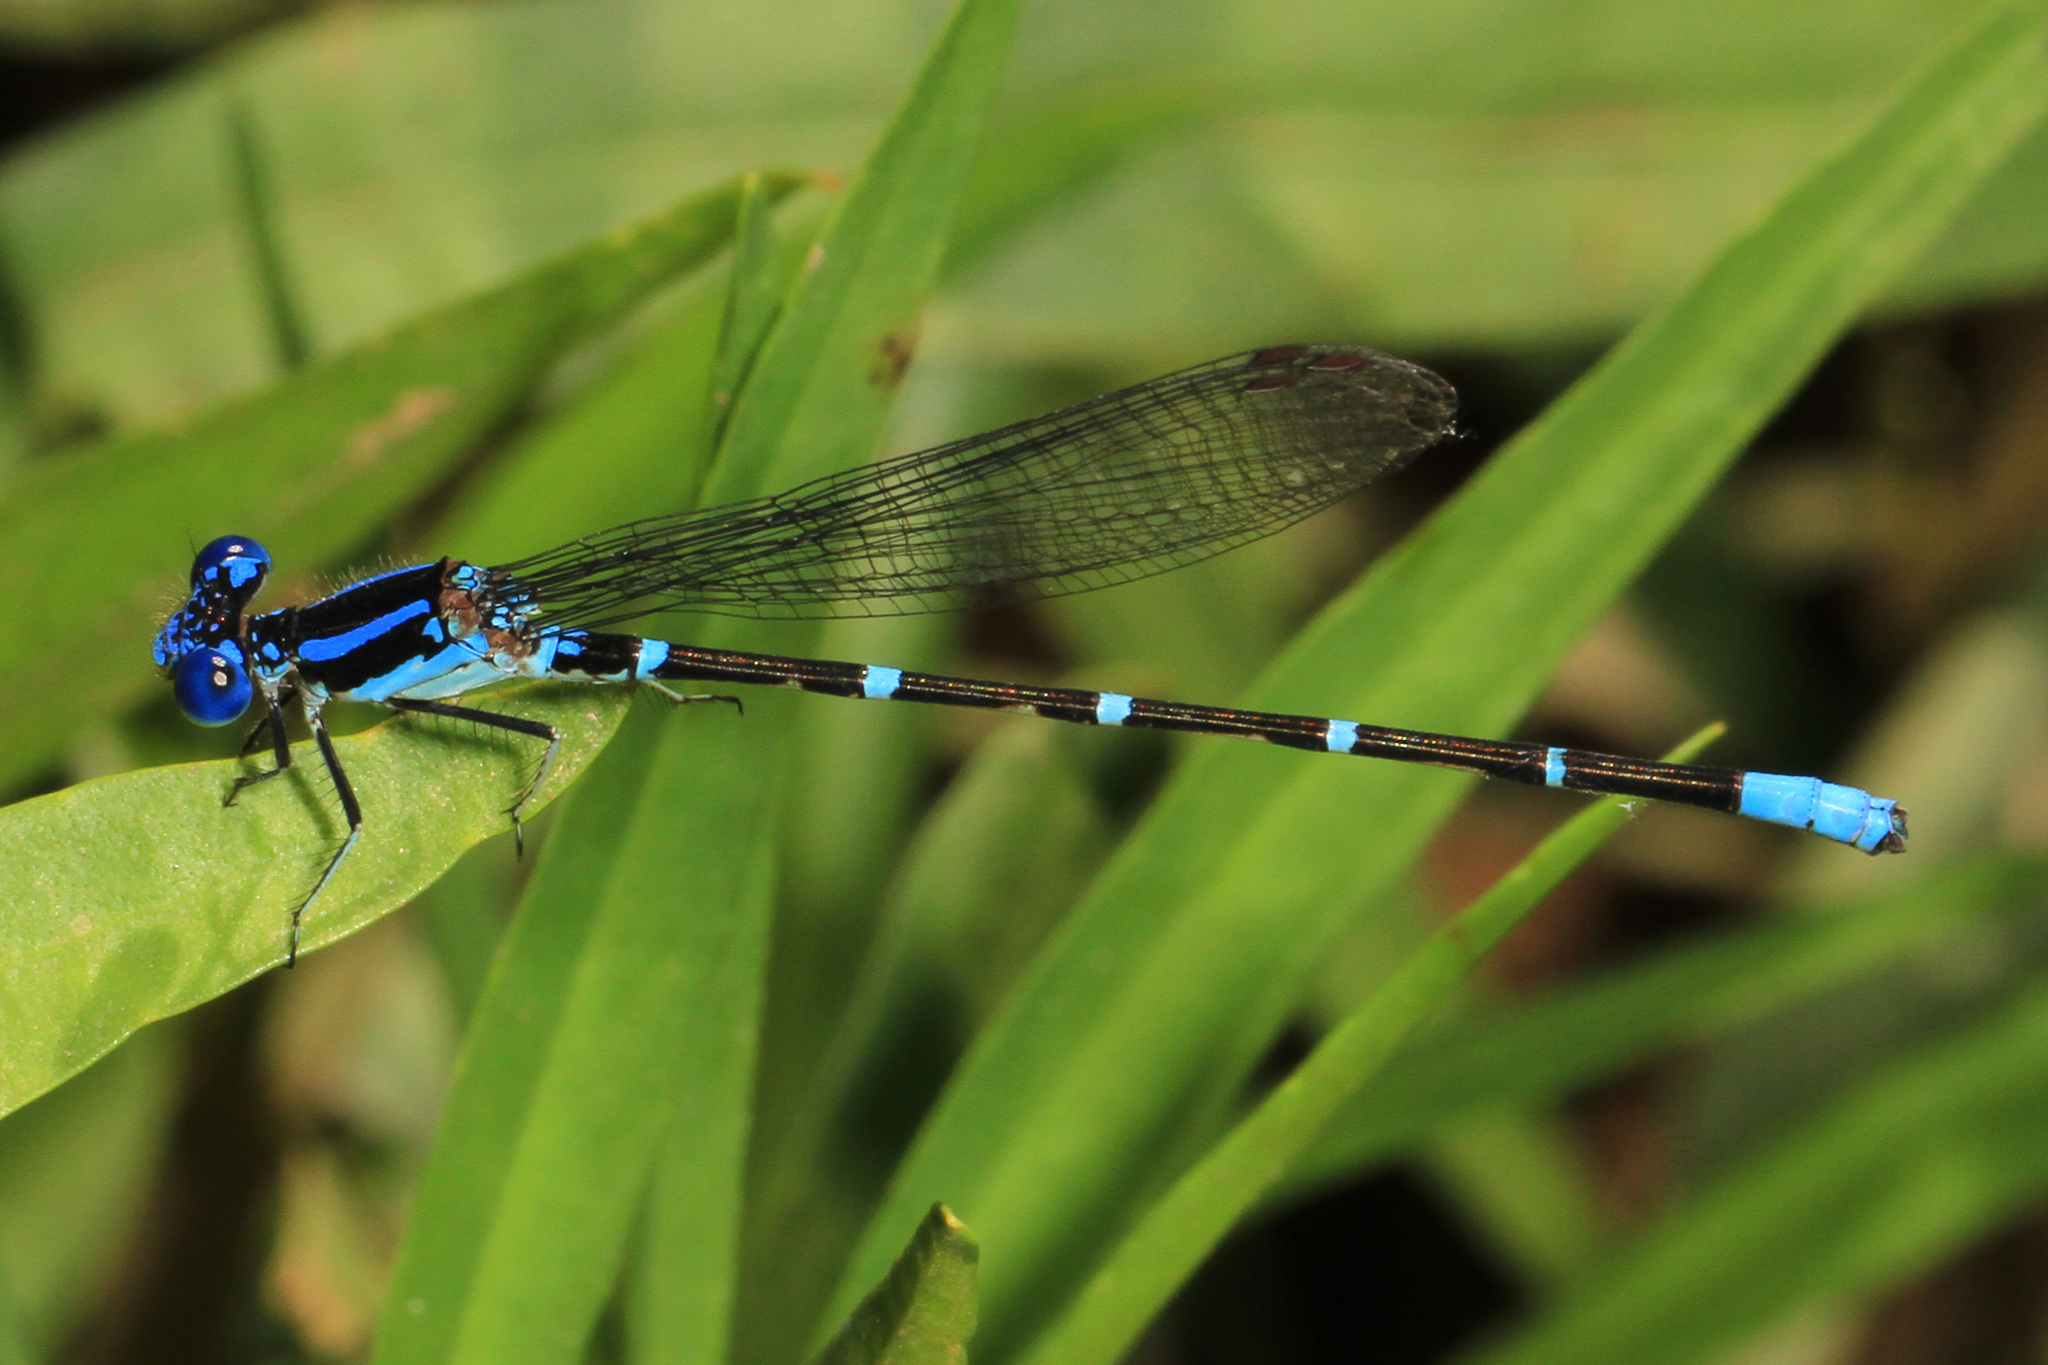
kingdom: Animalia
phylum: Arthropoda
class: Insecta
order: Odonata
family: Coenagrionidae
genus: Argia
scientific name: Argia sedula
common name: Blue-ringed dancer
